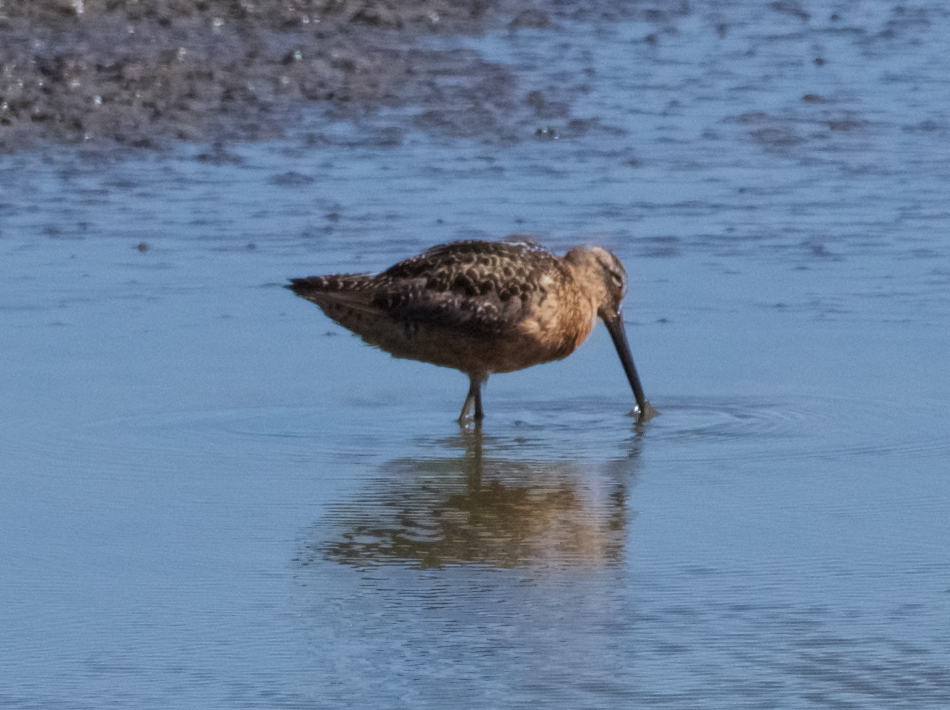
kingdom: Animalia
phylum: Chordata
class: Aves
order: Charadriiformes
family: Scolopacidae
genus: Limnodromus
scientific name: Limnodromus scolopaceus
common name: Long-billed dowitcher
